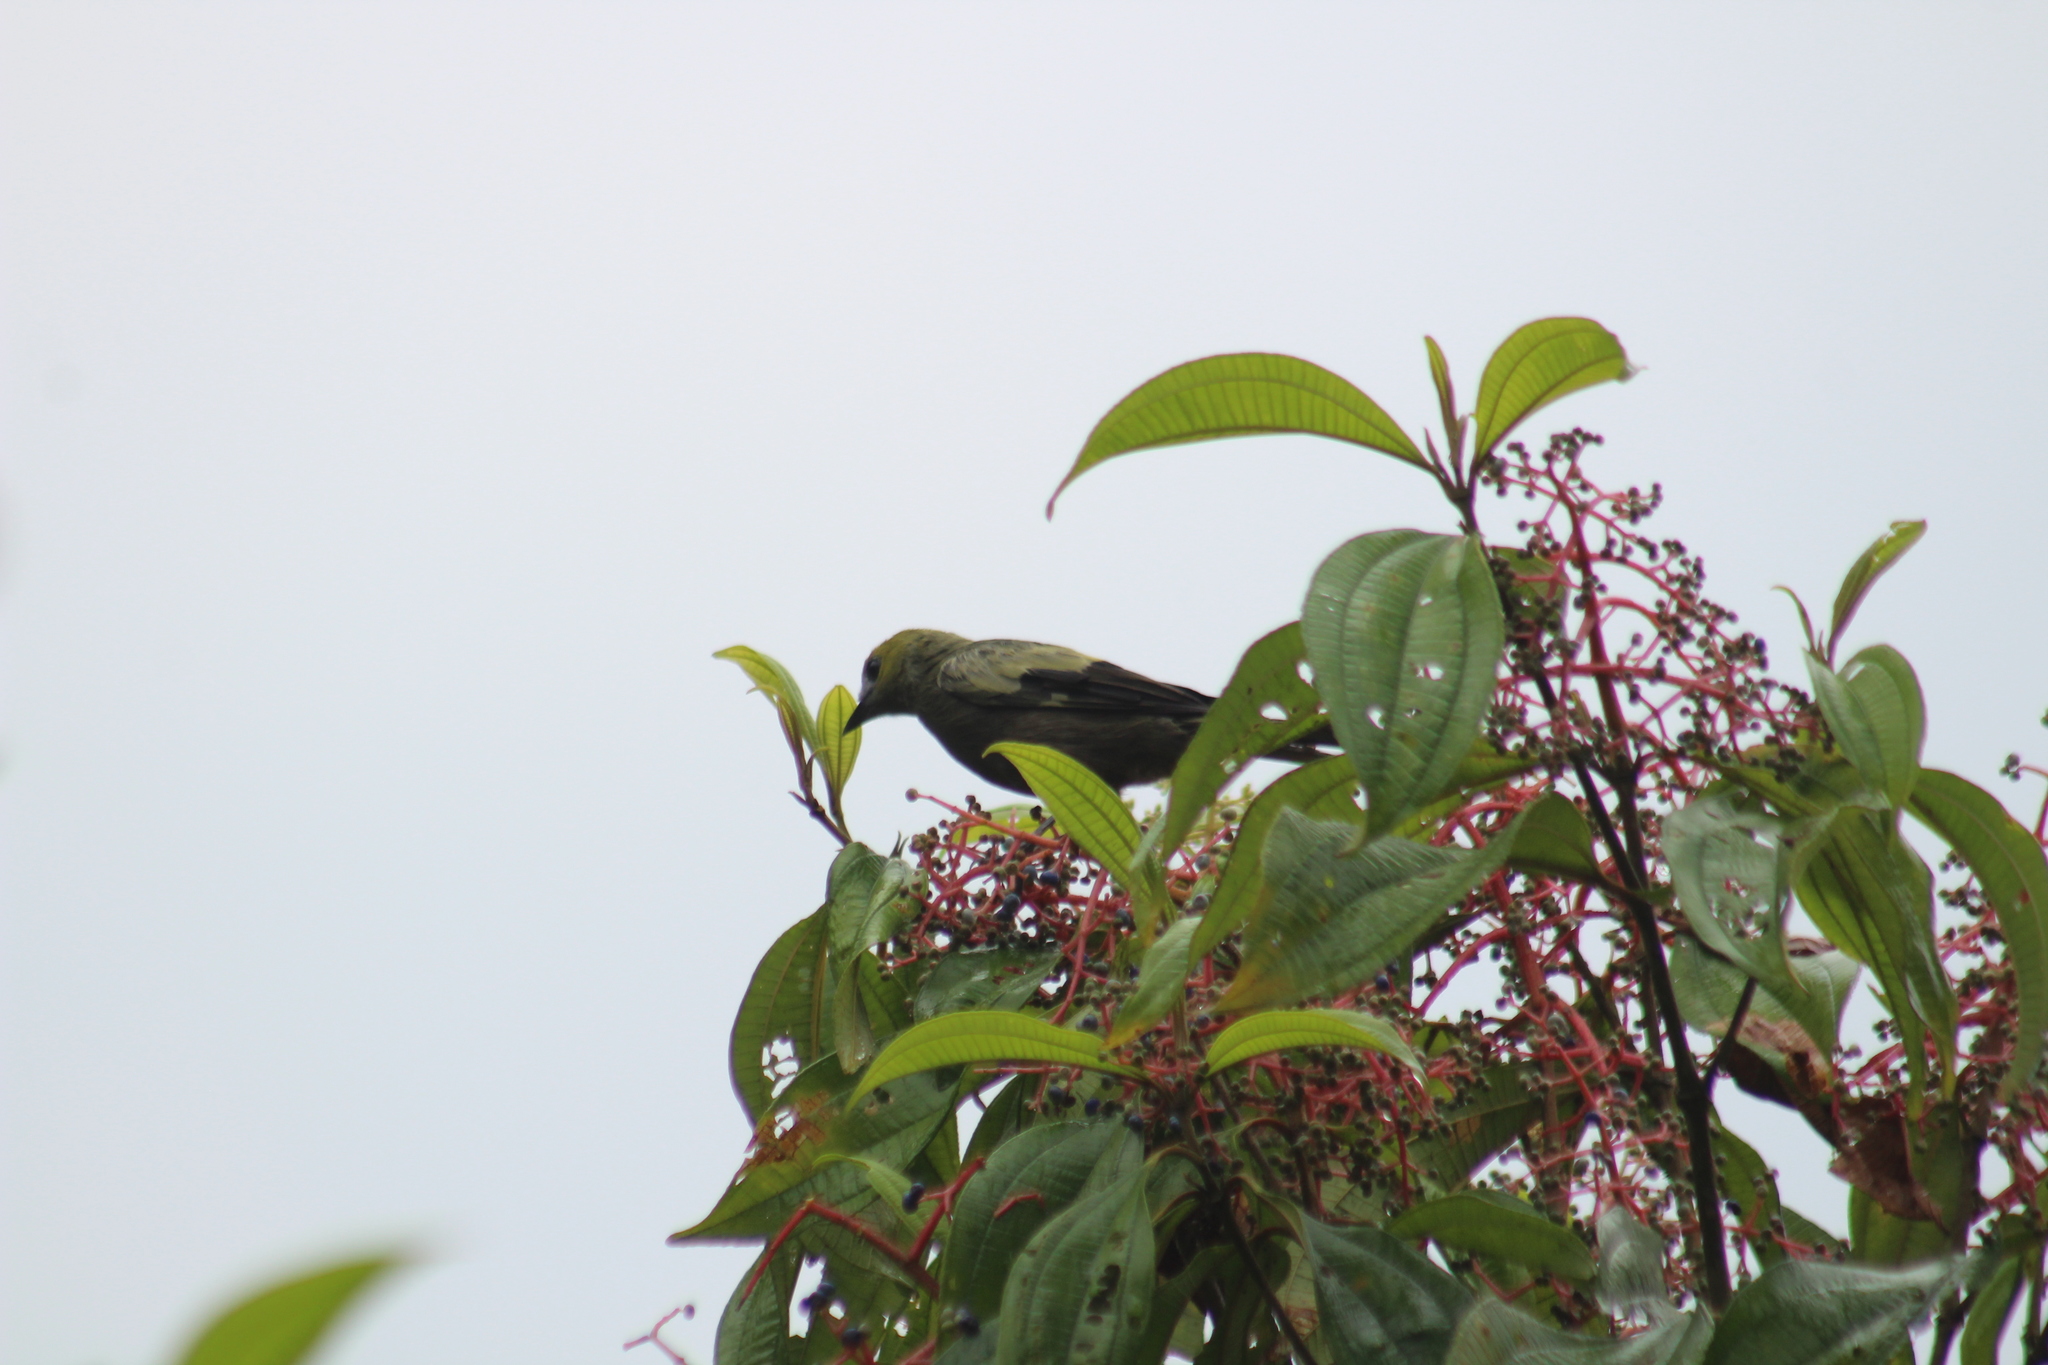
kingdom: Animalia
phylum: Chordata
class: Aves
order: Passeriformes
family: Thraupidae
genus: Thraupis
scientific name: Thraupis palmarum
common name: Palm tanager
